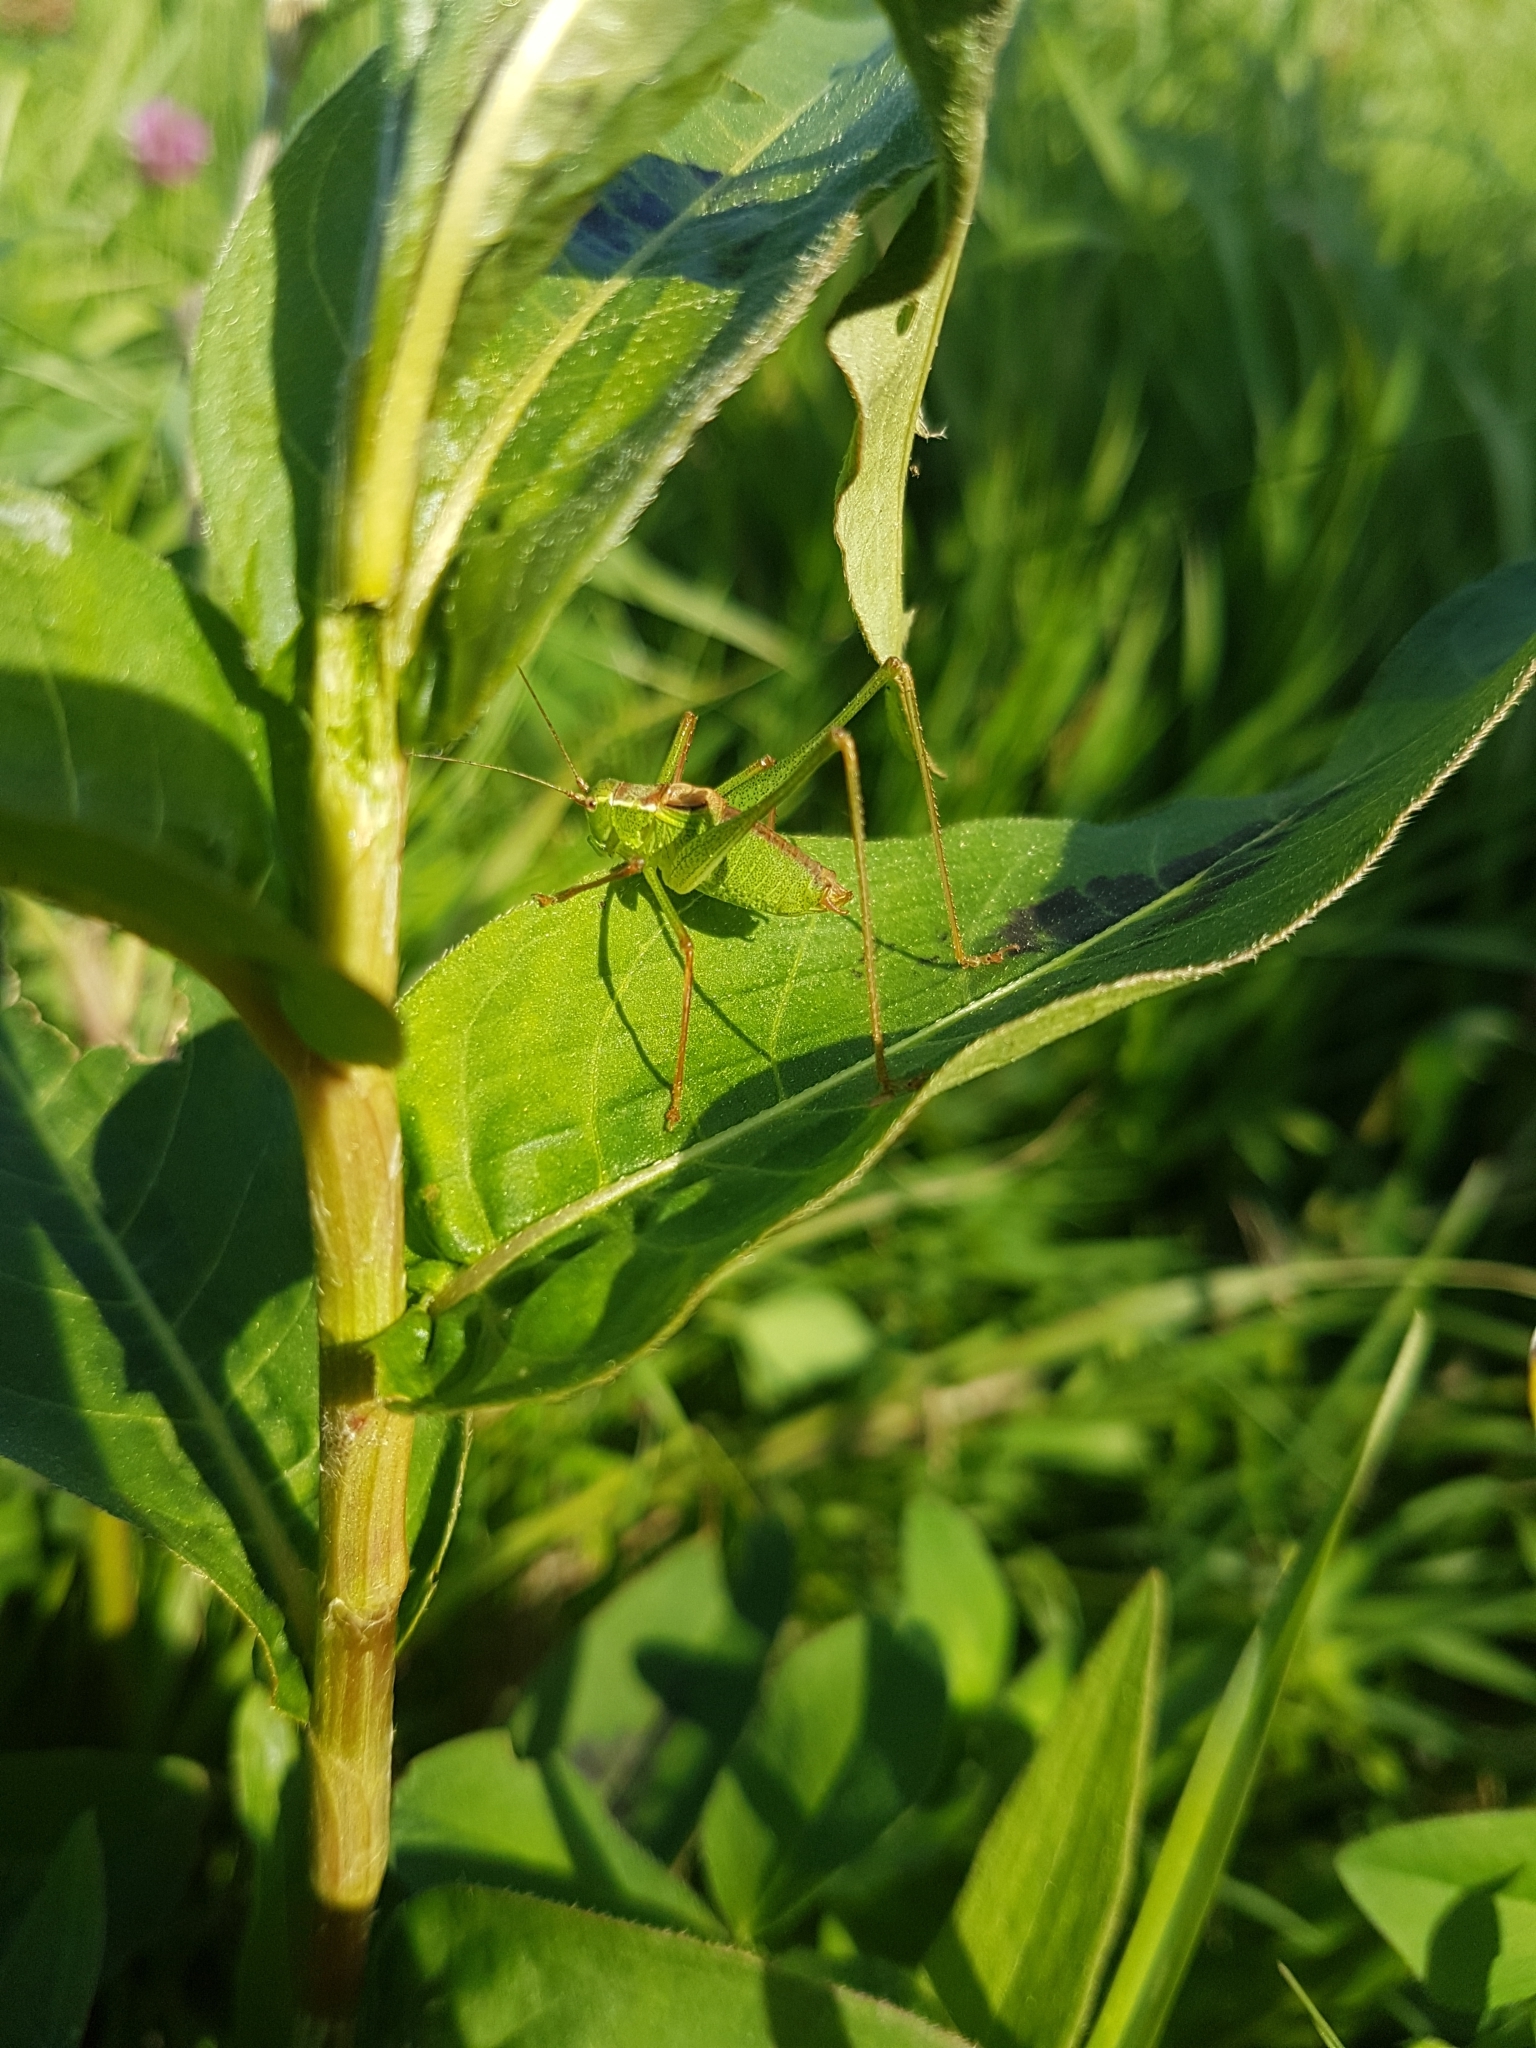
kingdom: Animalia
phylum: Arthropoda
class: Insecta
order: Orthoptera
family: Tettigoniidae
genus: Leptophyes
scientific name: Leptophyes punctatissima
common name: Speckled bush-cricket
